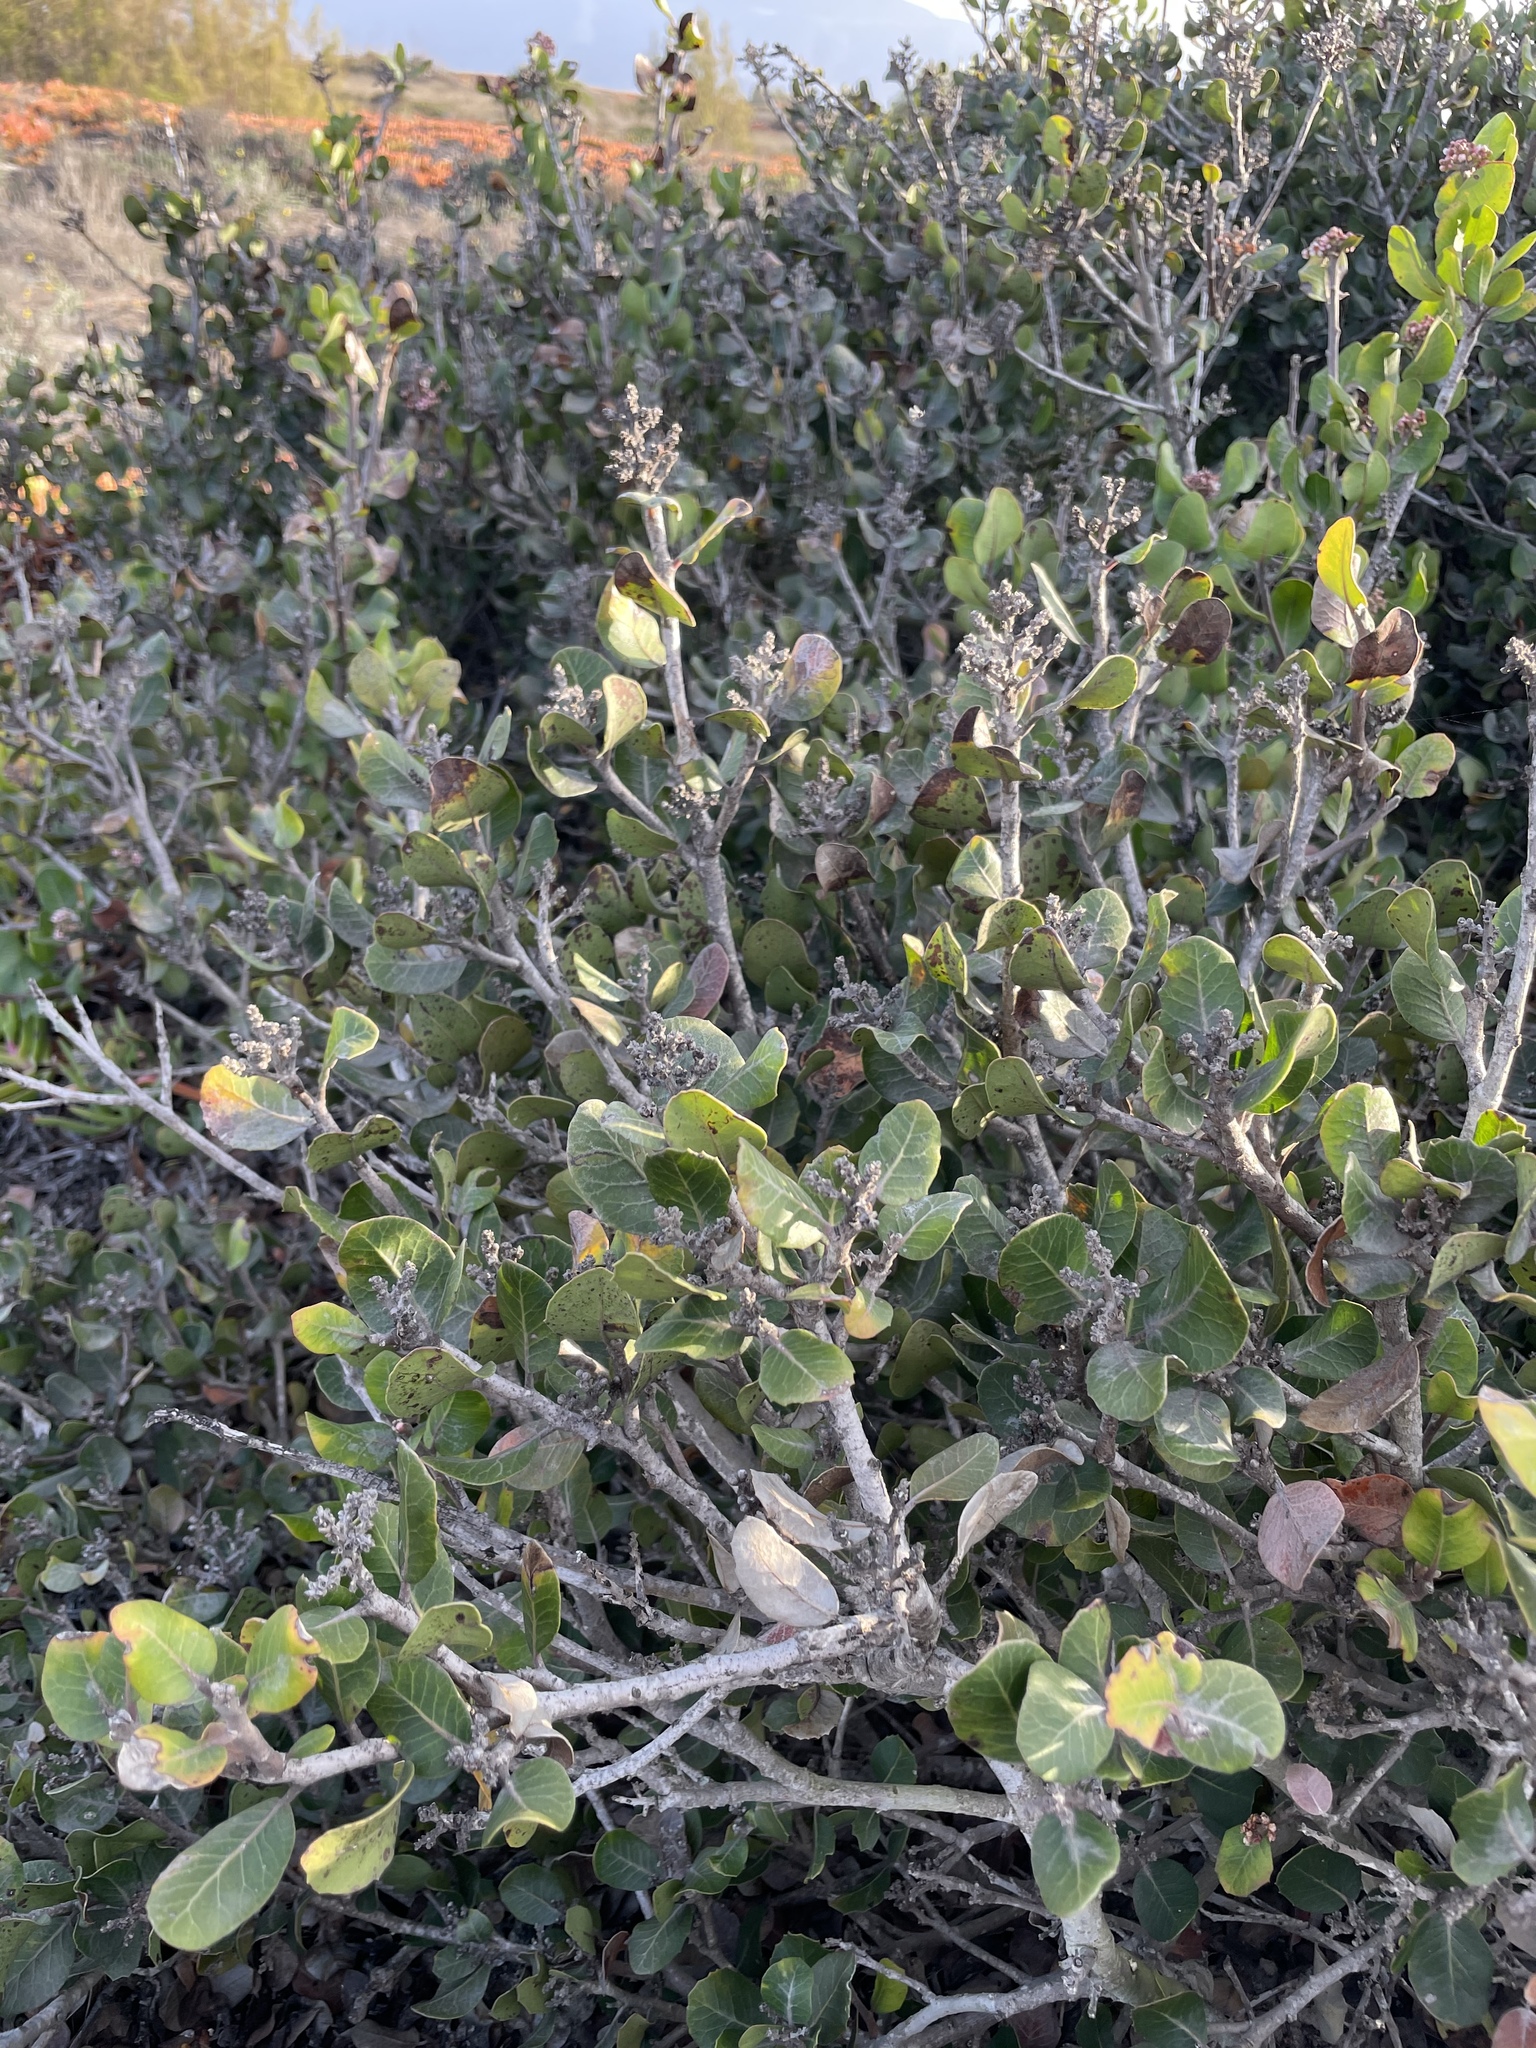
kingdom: Plantae
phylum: Tracheophyta
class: Magnoliopsida
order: Sapindales
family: Anacardiaceae
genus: Rhus
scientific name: Rhus integrifolia
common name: Lemonade sumac
